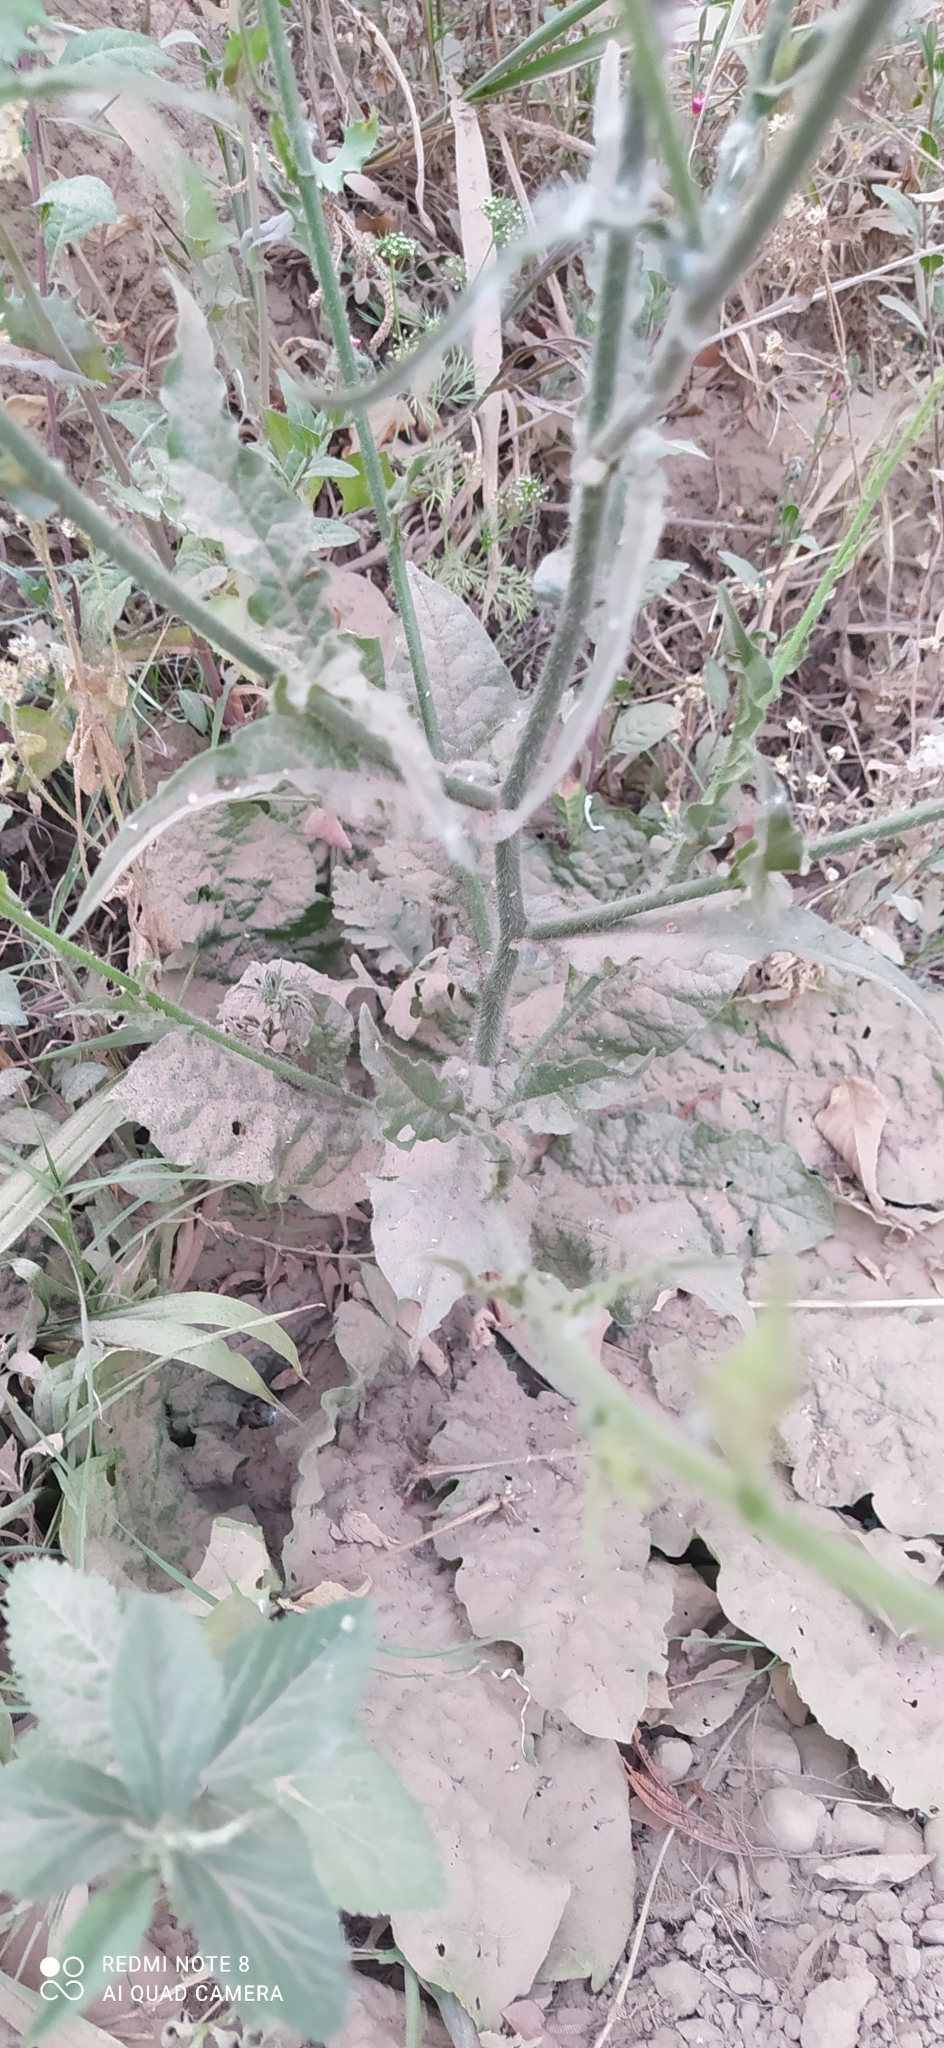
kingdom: Plantae
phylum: Tracheophyta
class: Magnoliopsida
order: Solanales
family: Solanaceae
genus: Nicotiana
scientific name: Nicotiana longiflora
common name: Long-flowered tobacco
